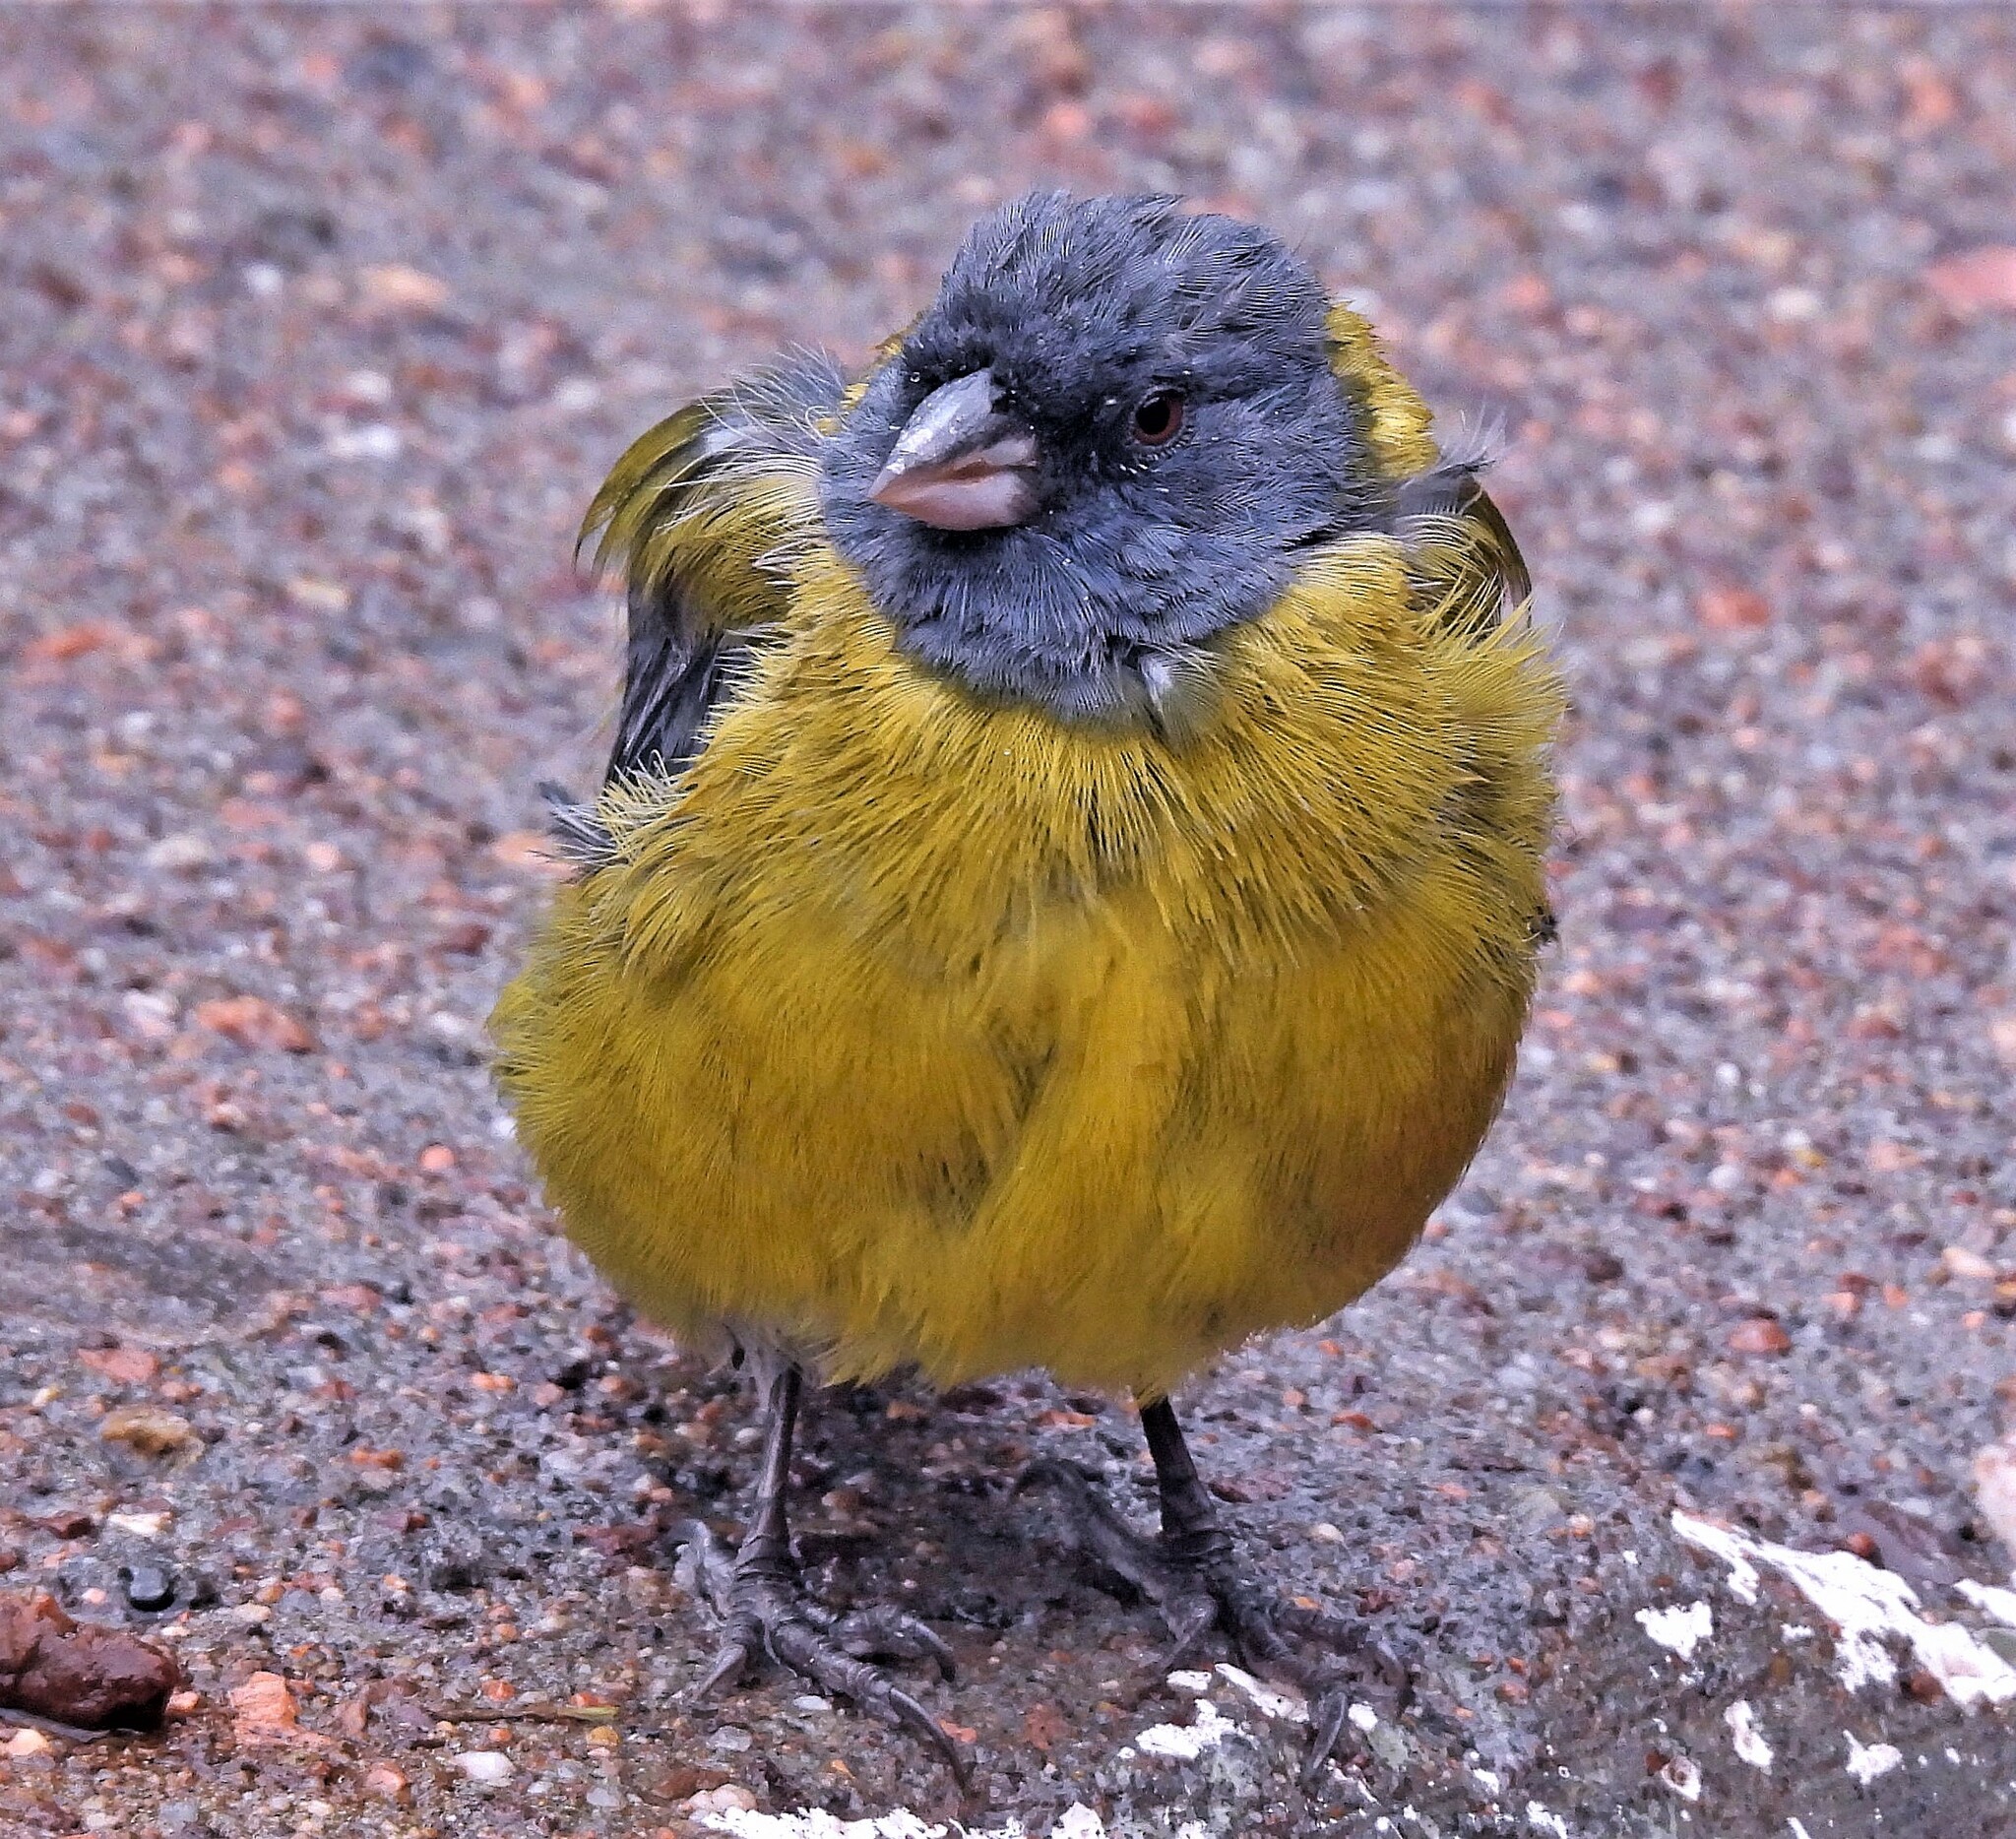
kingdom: Animalia
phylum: Chordata
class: Aves
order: Passeriformes
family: Thraupidae
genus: Phrygilus
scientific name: Phrygilus gayi
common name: Grey-hooded sierra finch
